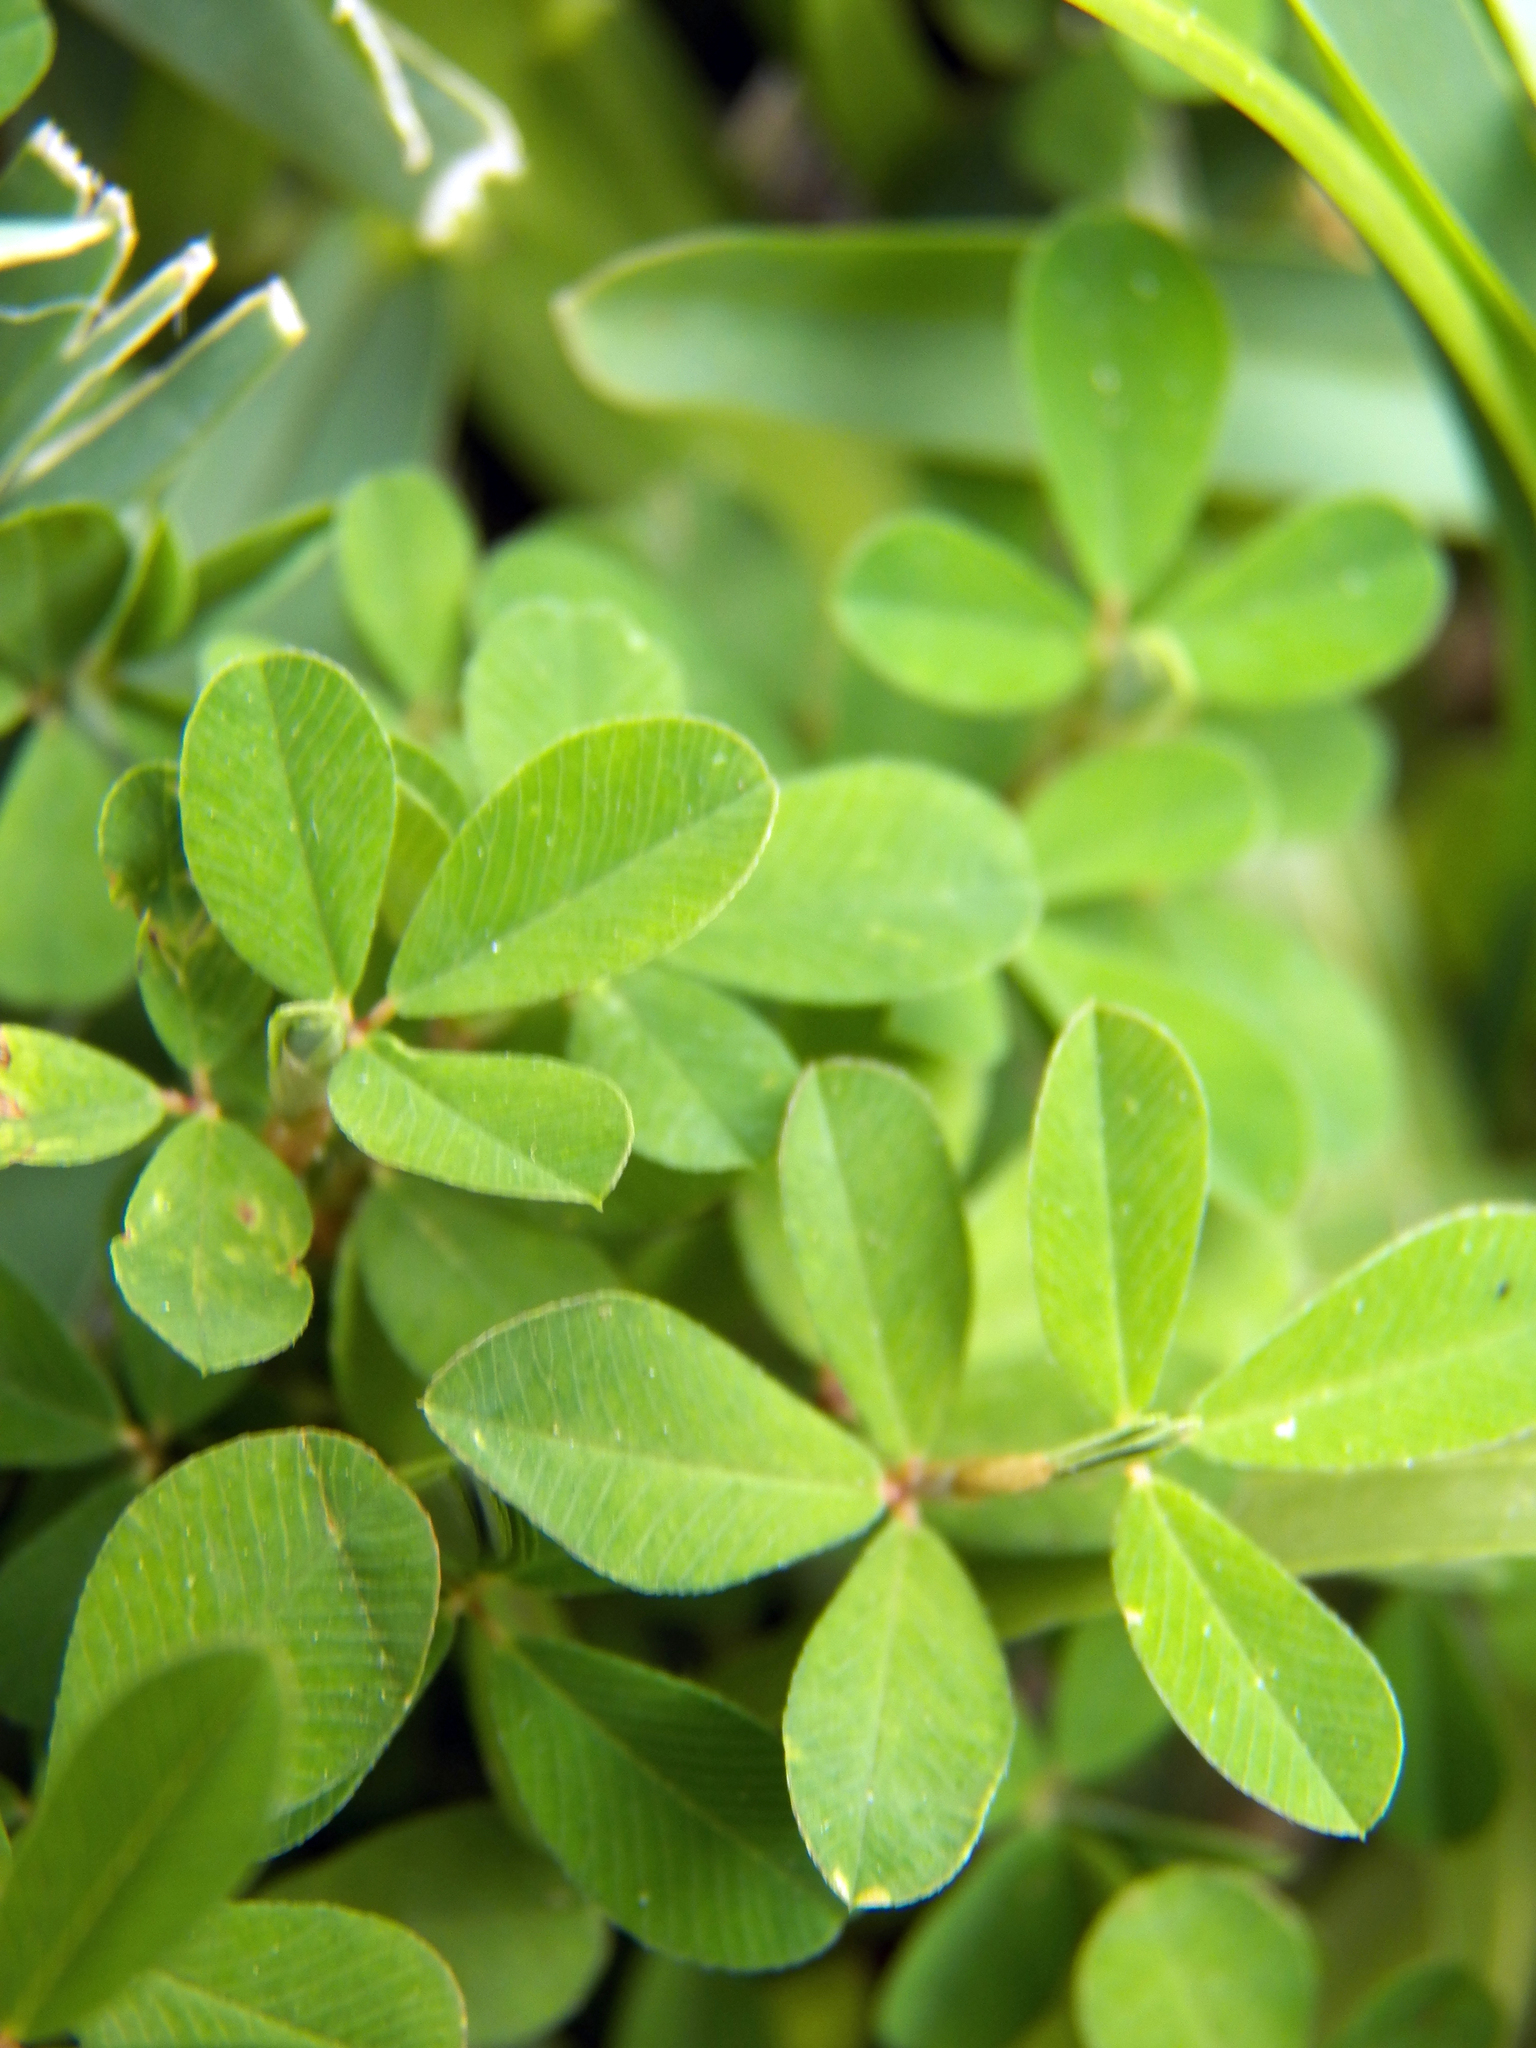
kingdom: Plantae
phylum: Tracheophyta
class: Magnoliopsida
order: Fabales
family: Fabaceae
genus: Kummerowia
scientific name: Kummerowia striata
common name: Japanese clover
